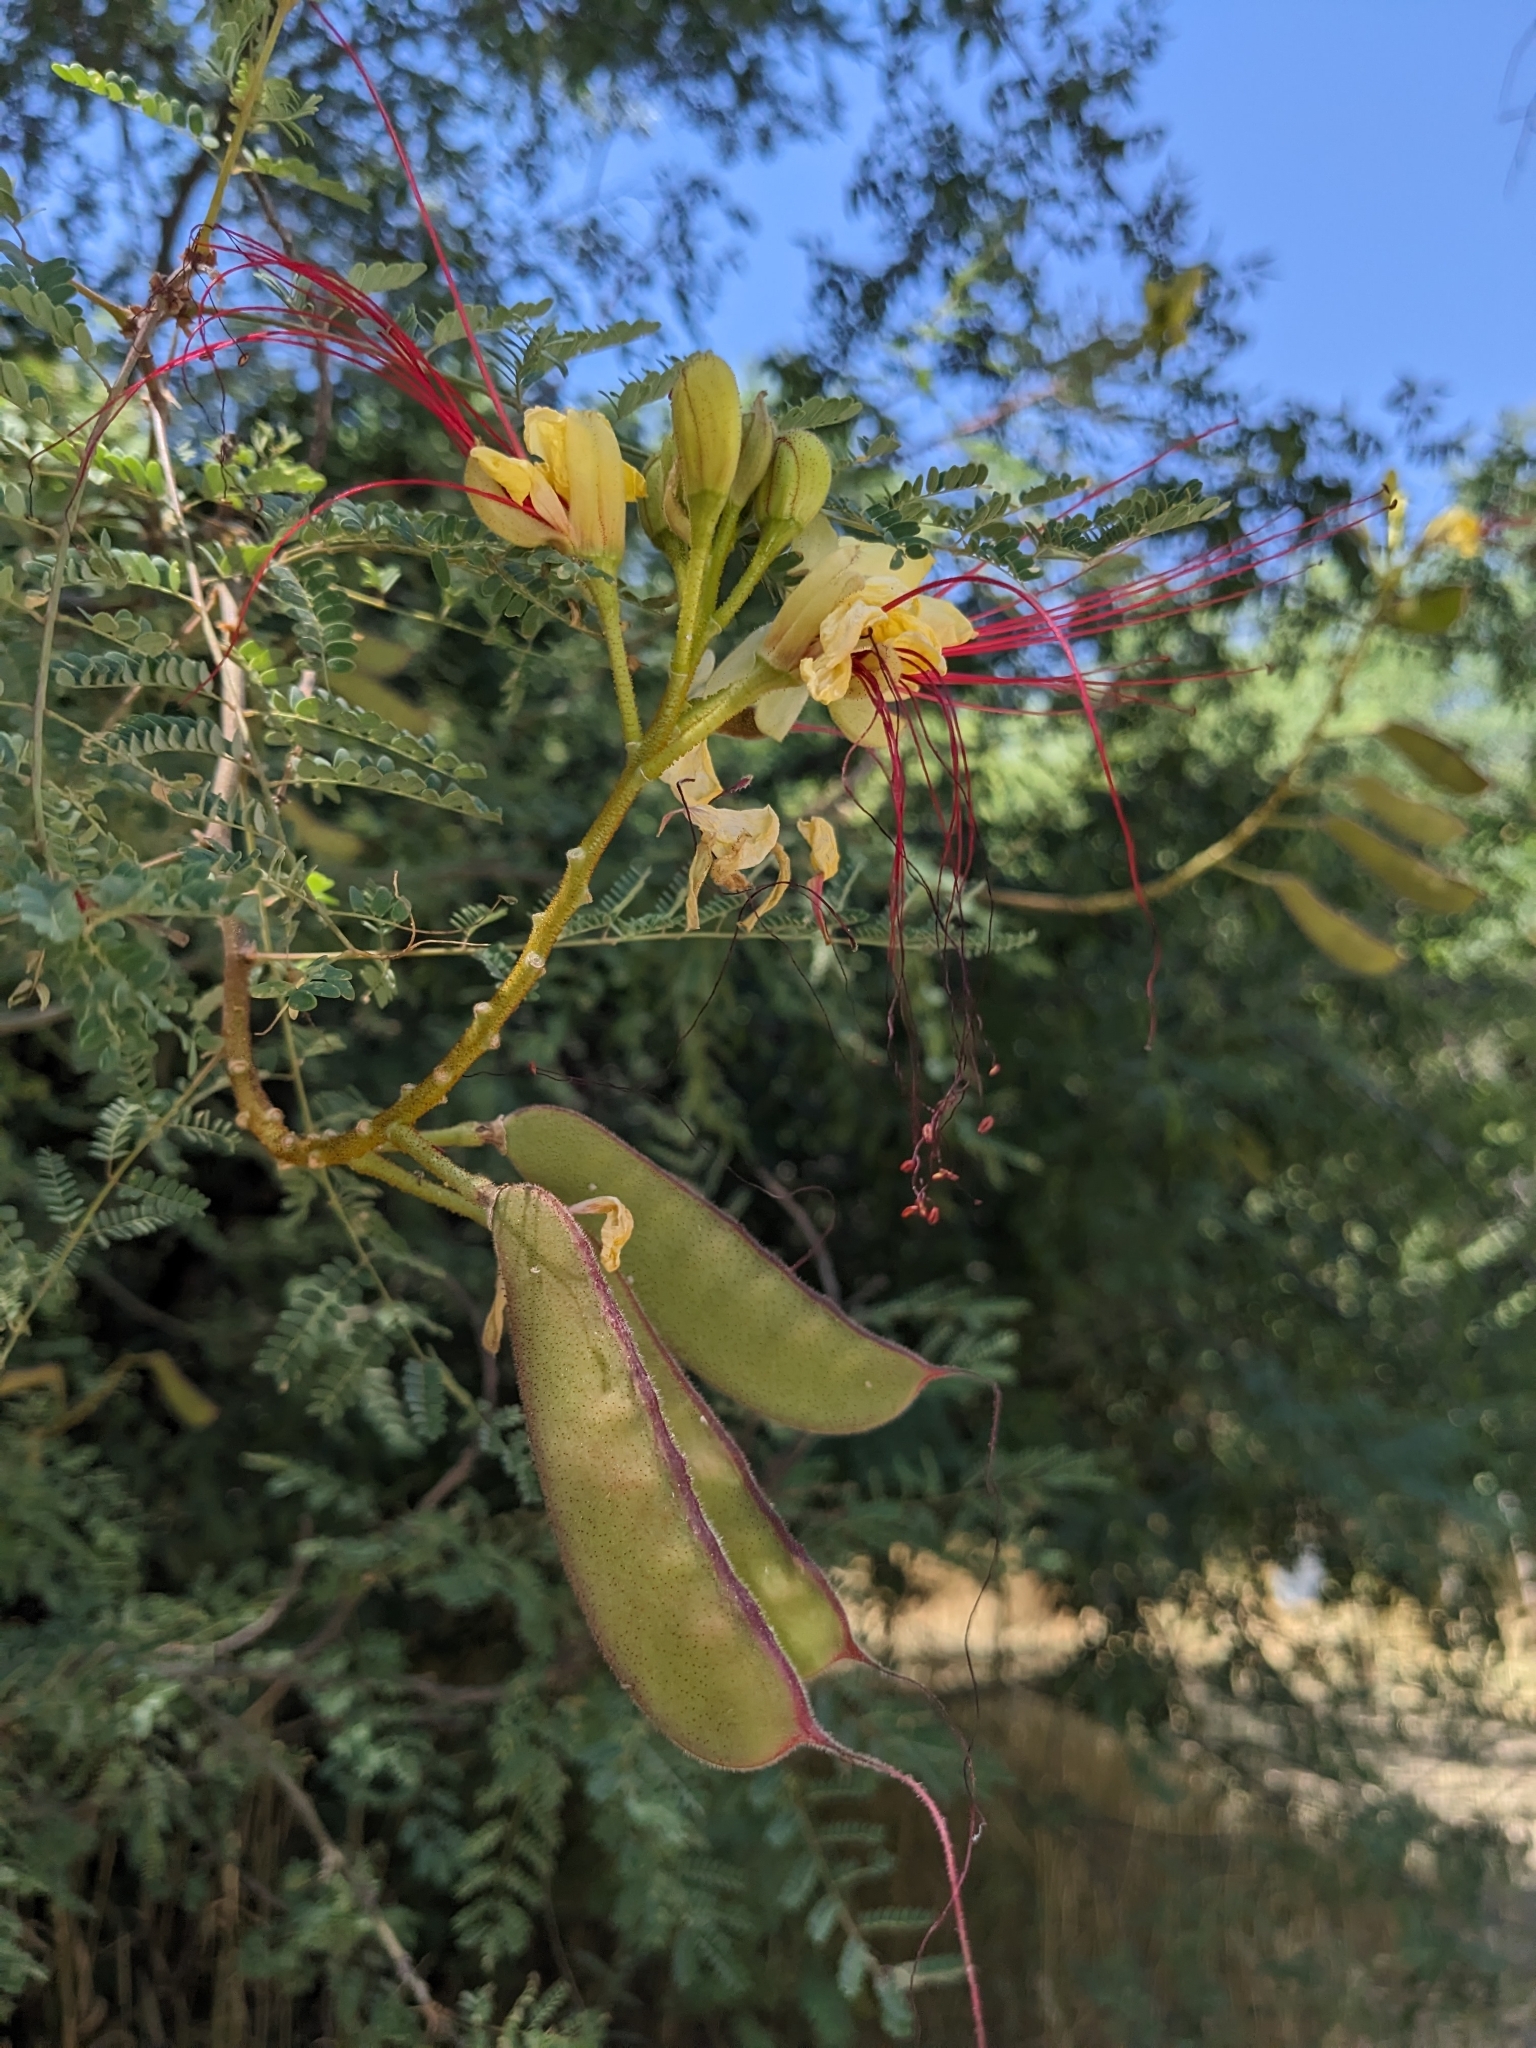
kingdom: Plantae
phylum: Tracheophyta
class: Magnoliopsida
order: Fabales
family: Fabaceae
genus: Erythrostemon
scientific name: Erythrostemon gilliesii
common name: Bird-of-paradise shrub
